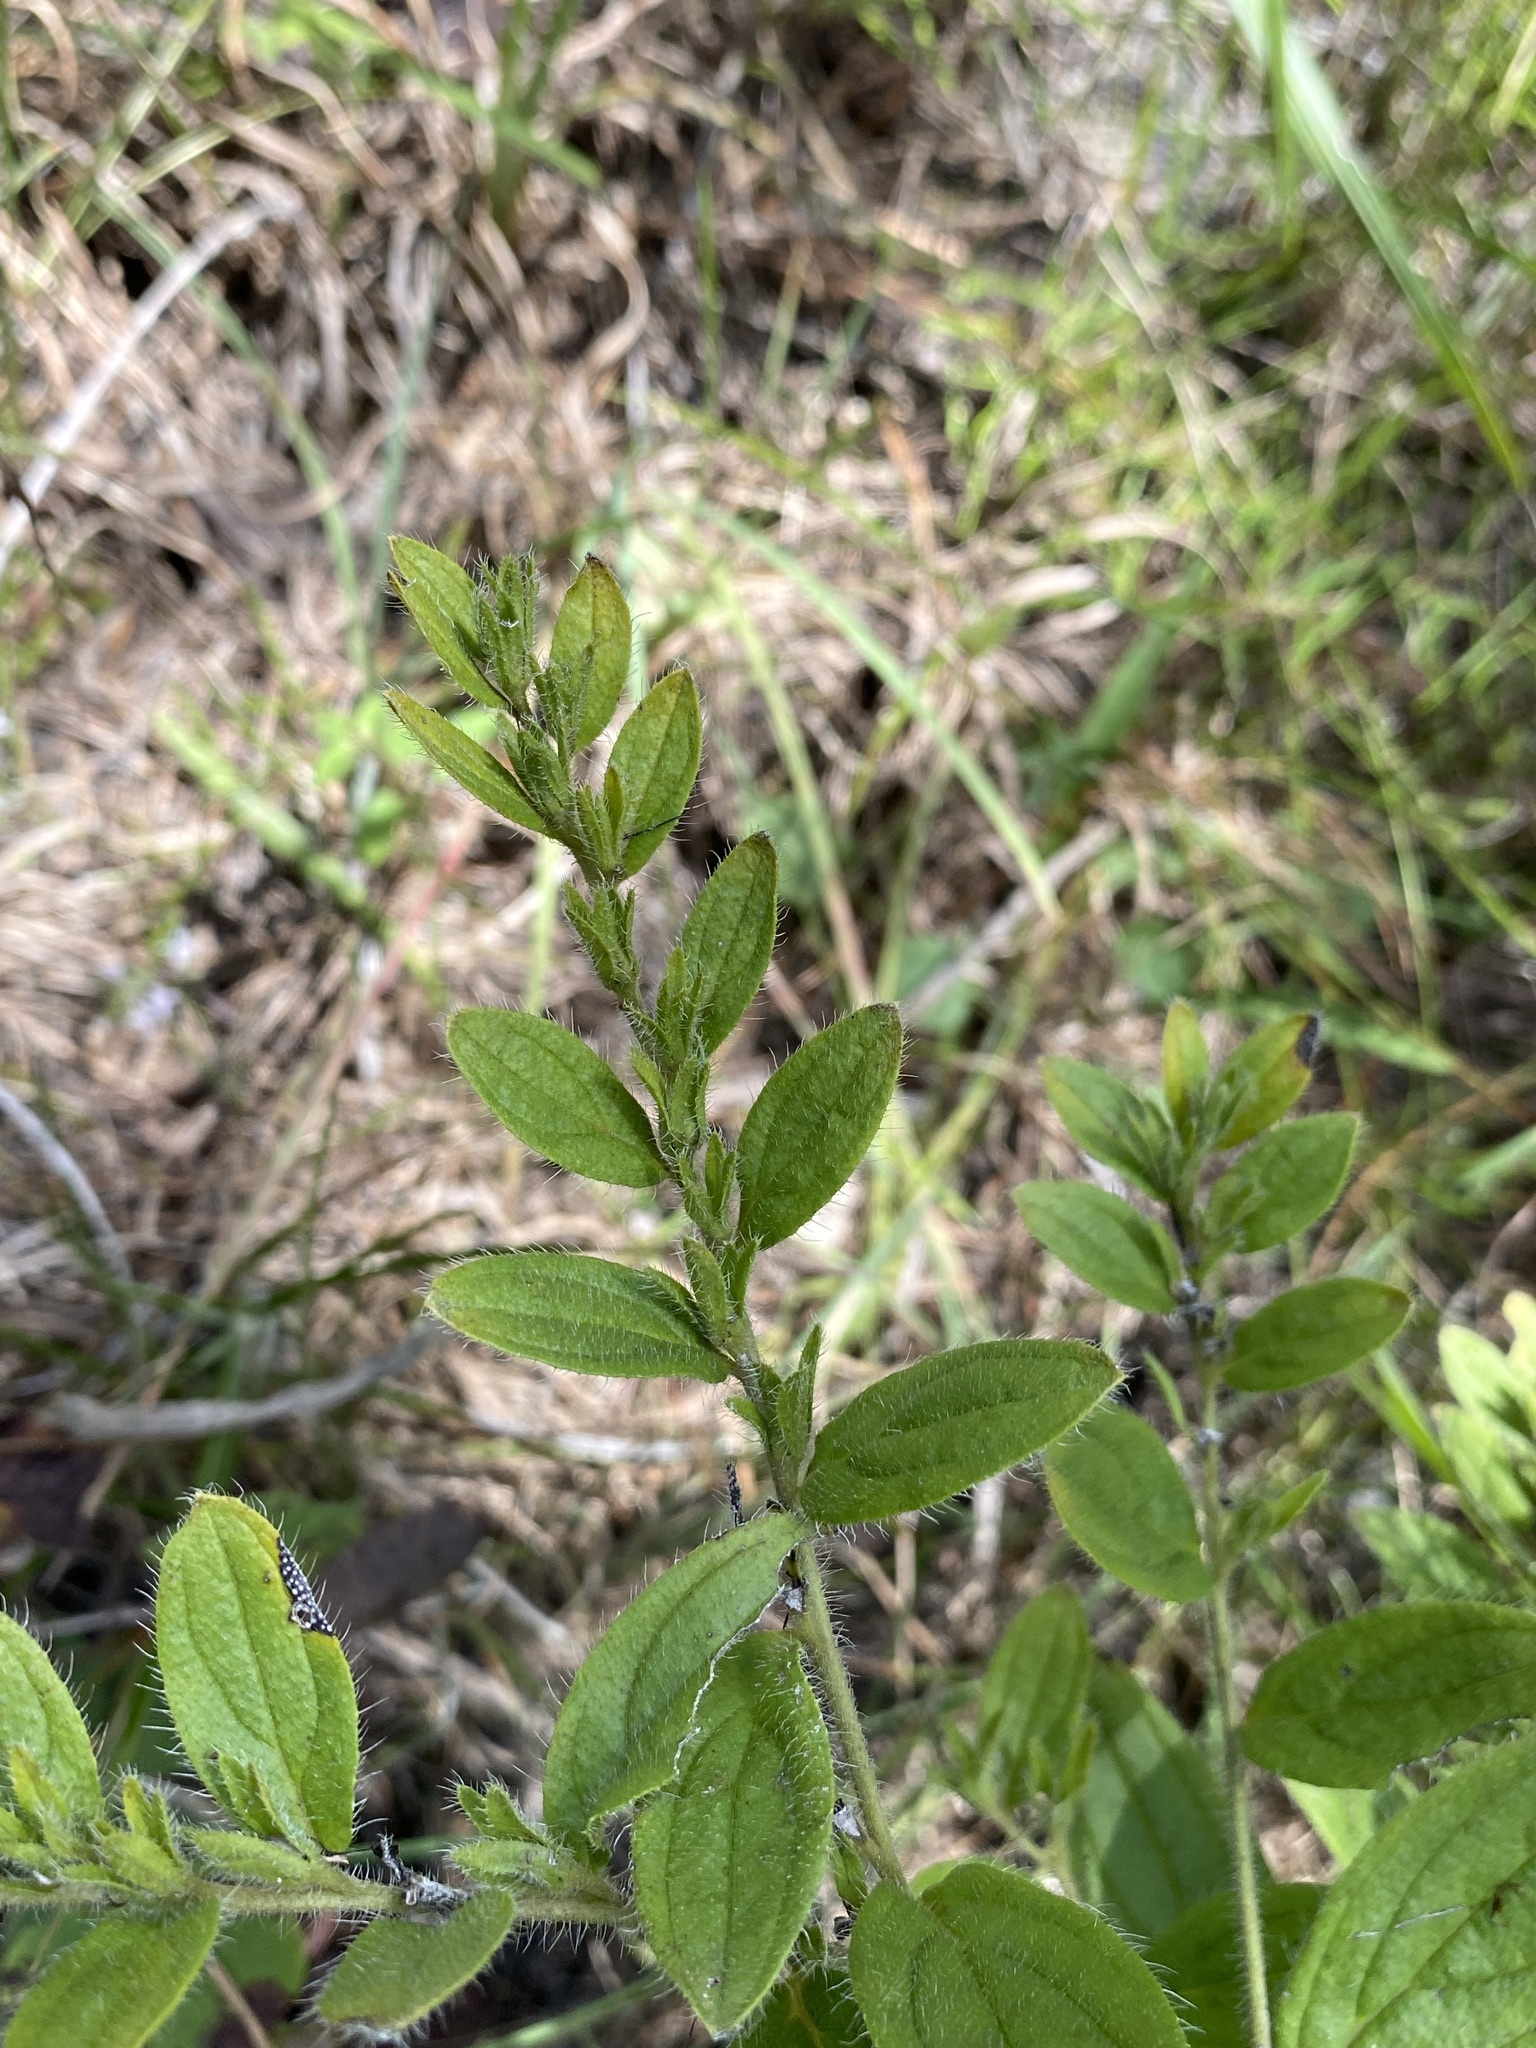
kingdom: Plantae
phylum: Tracheophyta
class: Magnoliopsida
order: Boraginales
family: Boraginaceae
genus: Lithospermum
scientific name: Lithospermum decipiens
